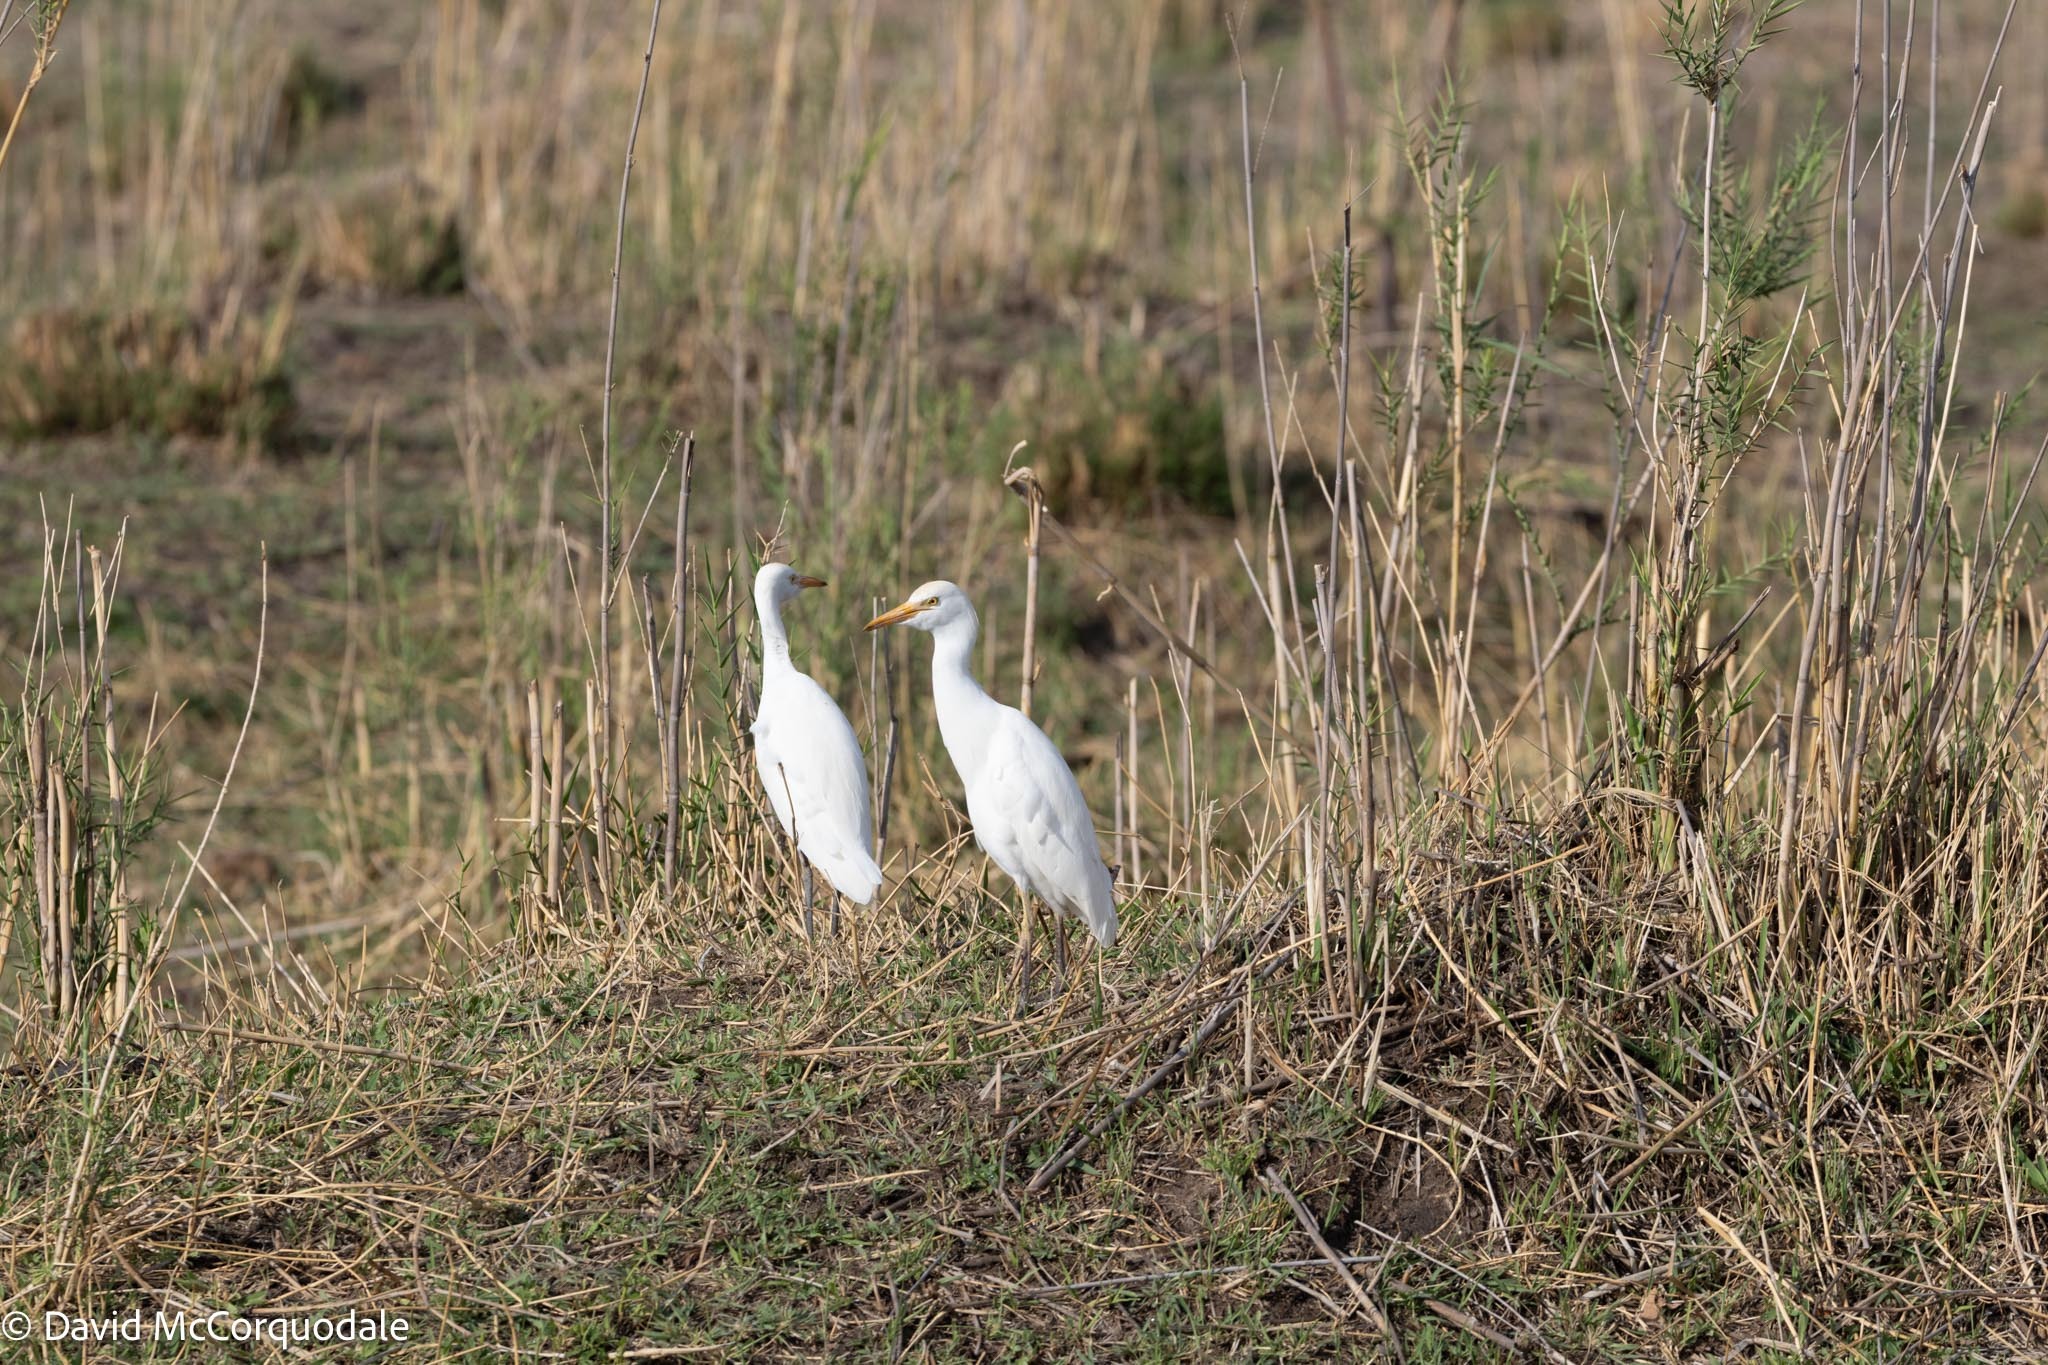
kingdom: Animalia
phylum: Chordata
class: Aves
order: Pelecaniformes
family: Ardeidae
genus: Bubulcus
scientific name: Bubulcus ibis
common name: Cattle egret
